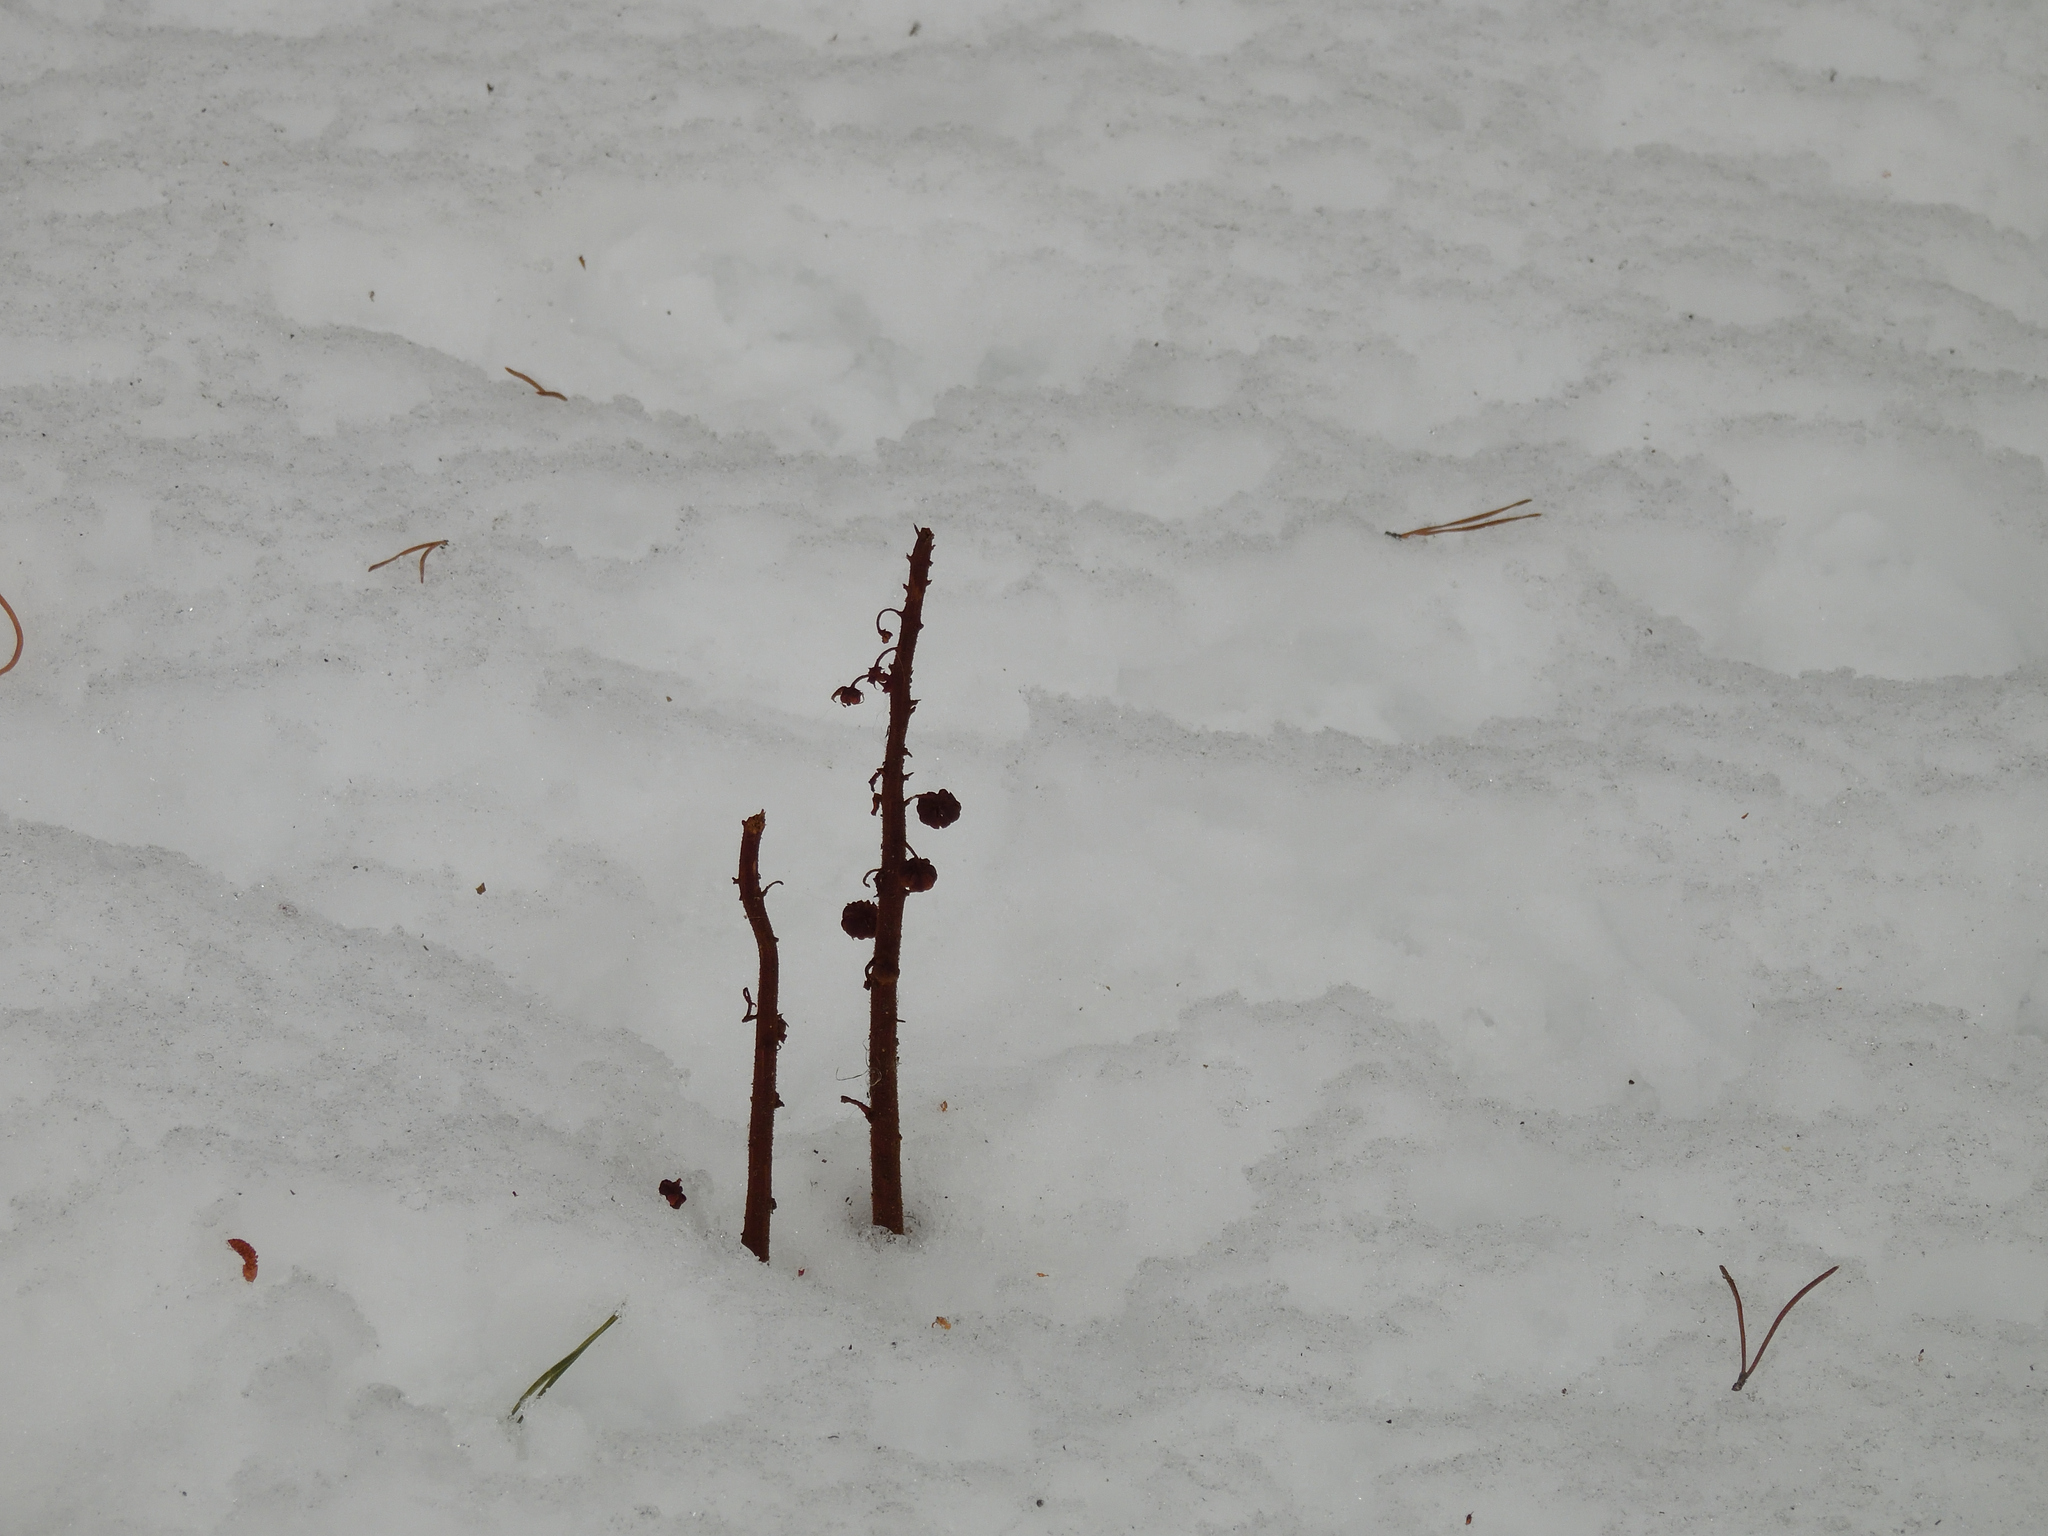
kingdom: Plantae
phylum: Tracheophyta
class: Magnoliopsida
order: Ericales
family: Ericaceae
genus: Pterospora
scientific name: Pterospora andromedea
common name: Giant bird's-nest
